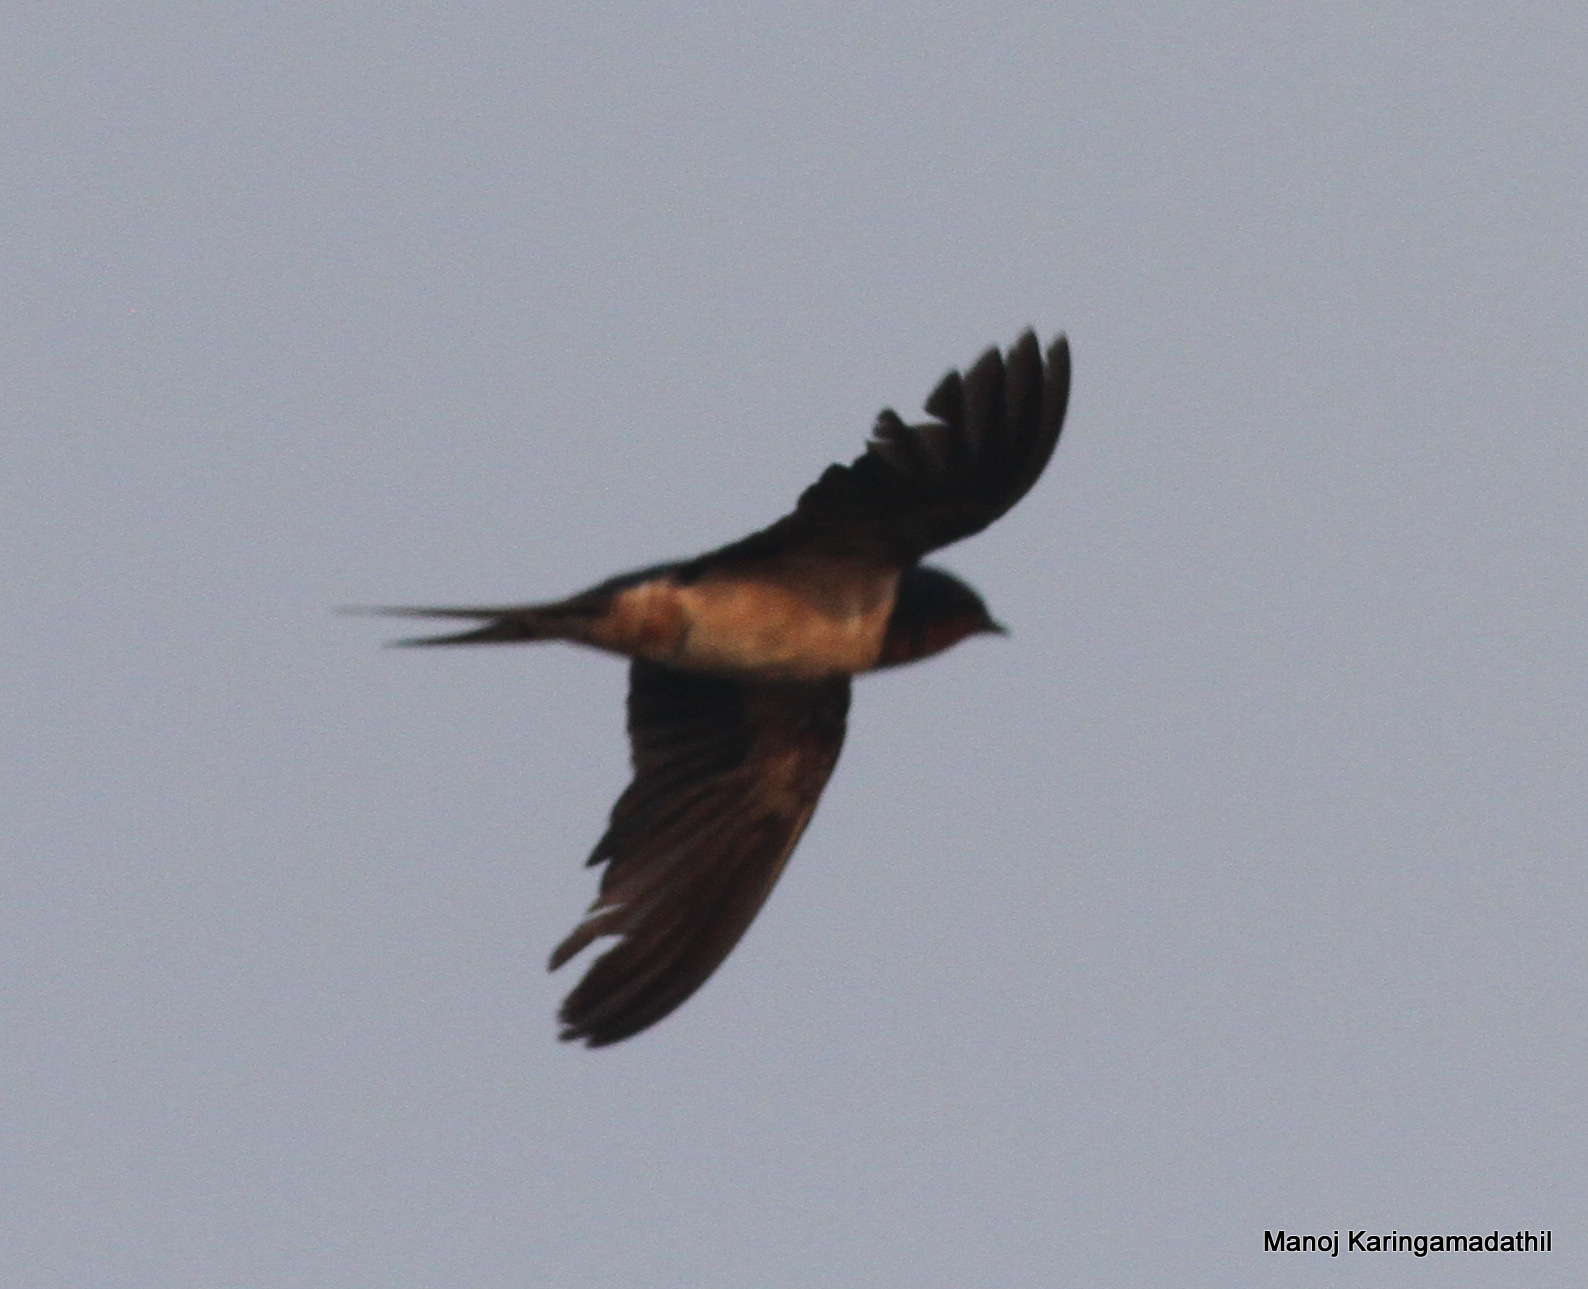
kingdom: Animalia
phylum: Chordata
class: Aves
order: Passeriformes
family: Hirundinidae
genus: Hirundo
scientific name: Hirundo rustica
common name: Barn swallow
